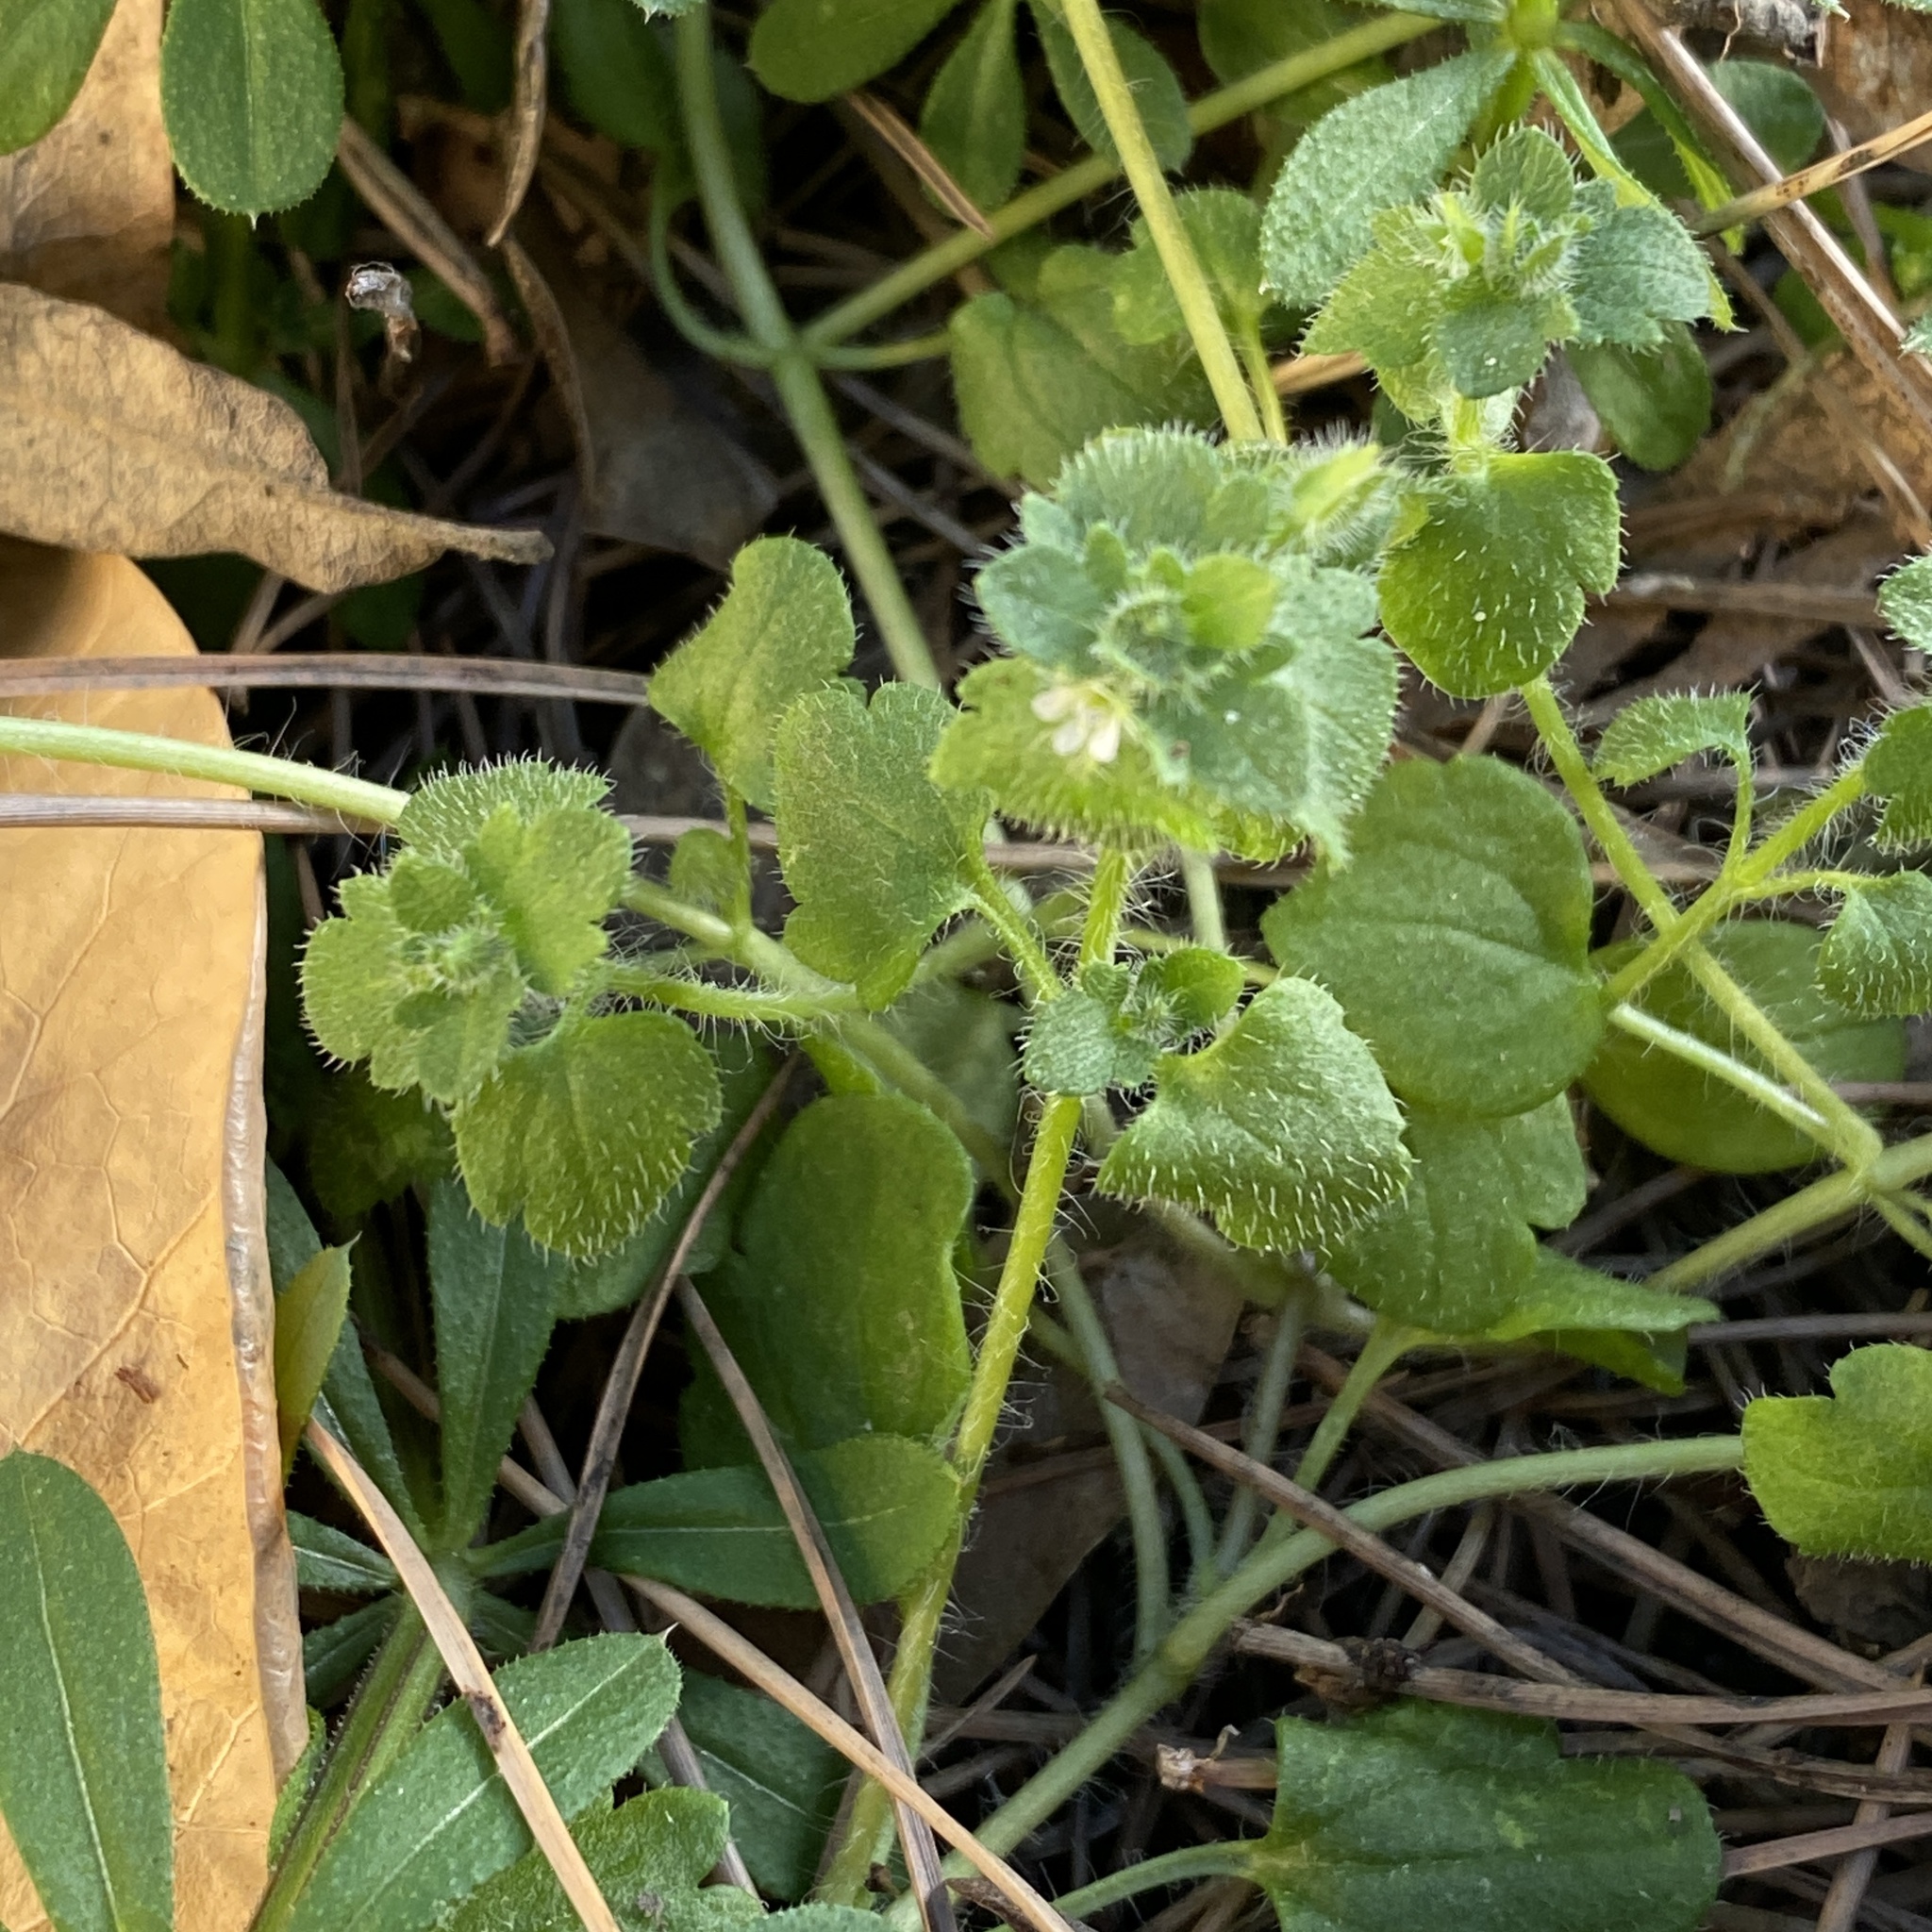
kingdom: Plantae
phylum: Tracheophyta
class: Magnoliopsida
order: Lamiales
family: Plantaginaceae
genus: Veronica
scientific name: Veronica sibthorpioides
